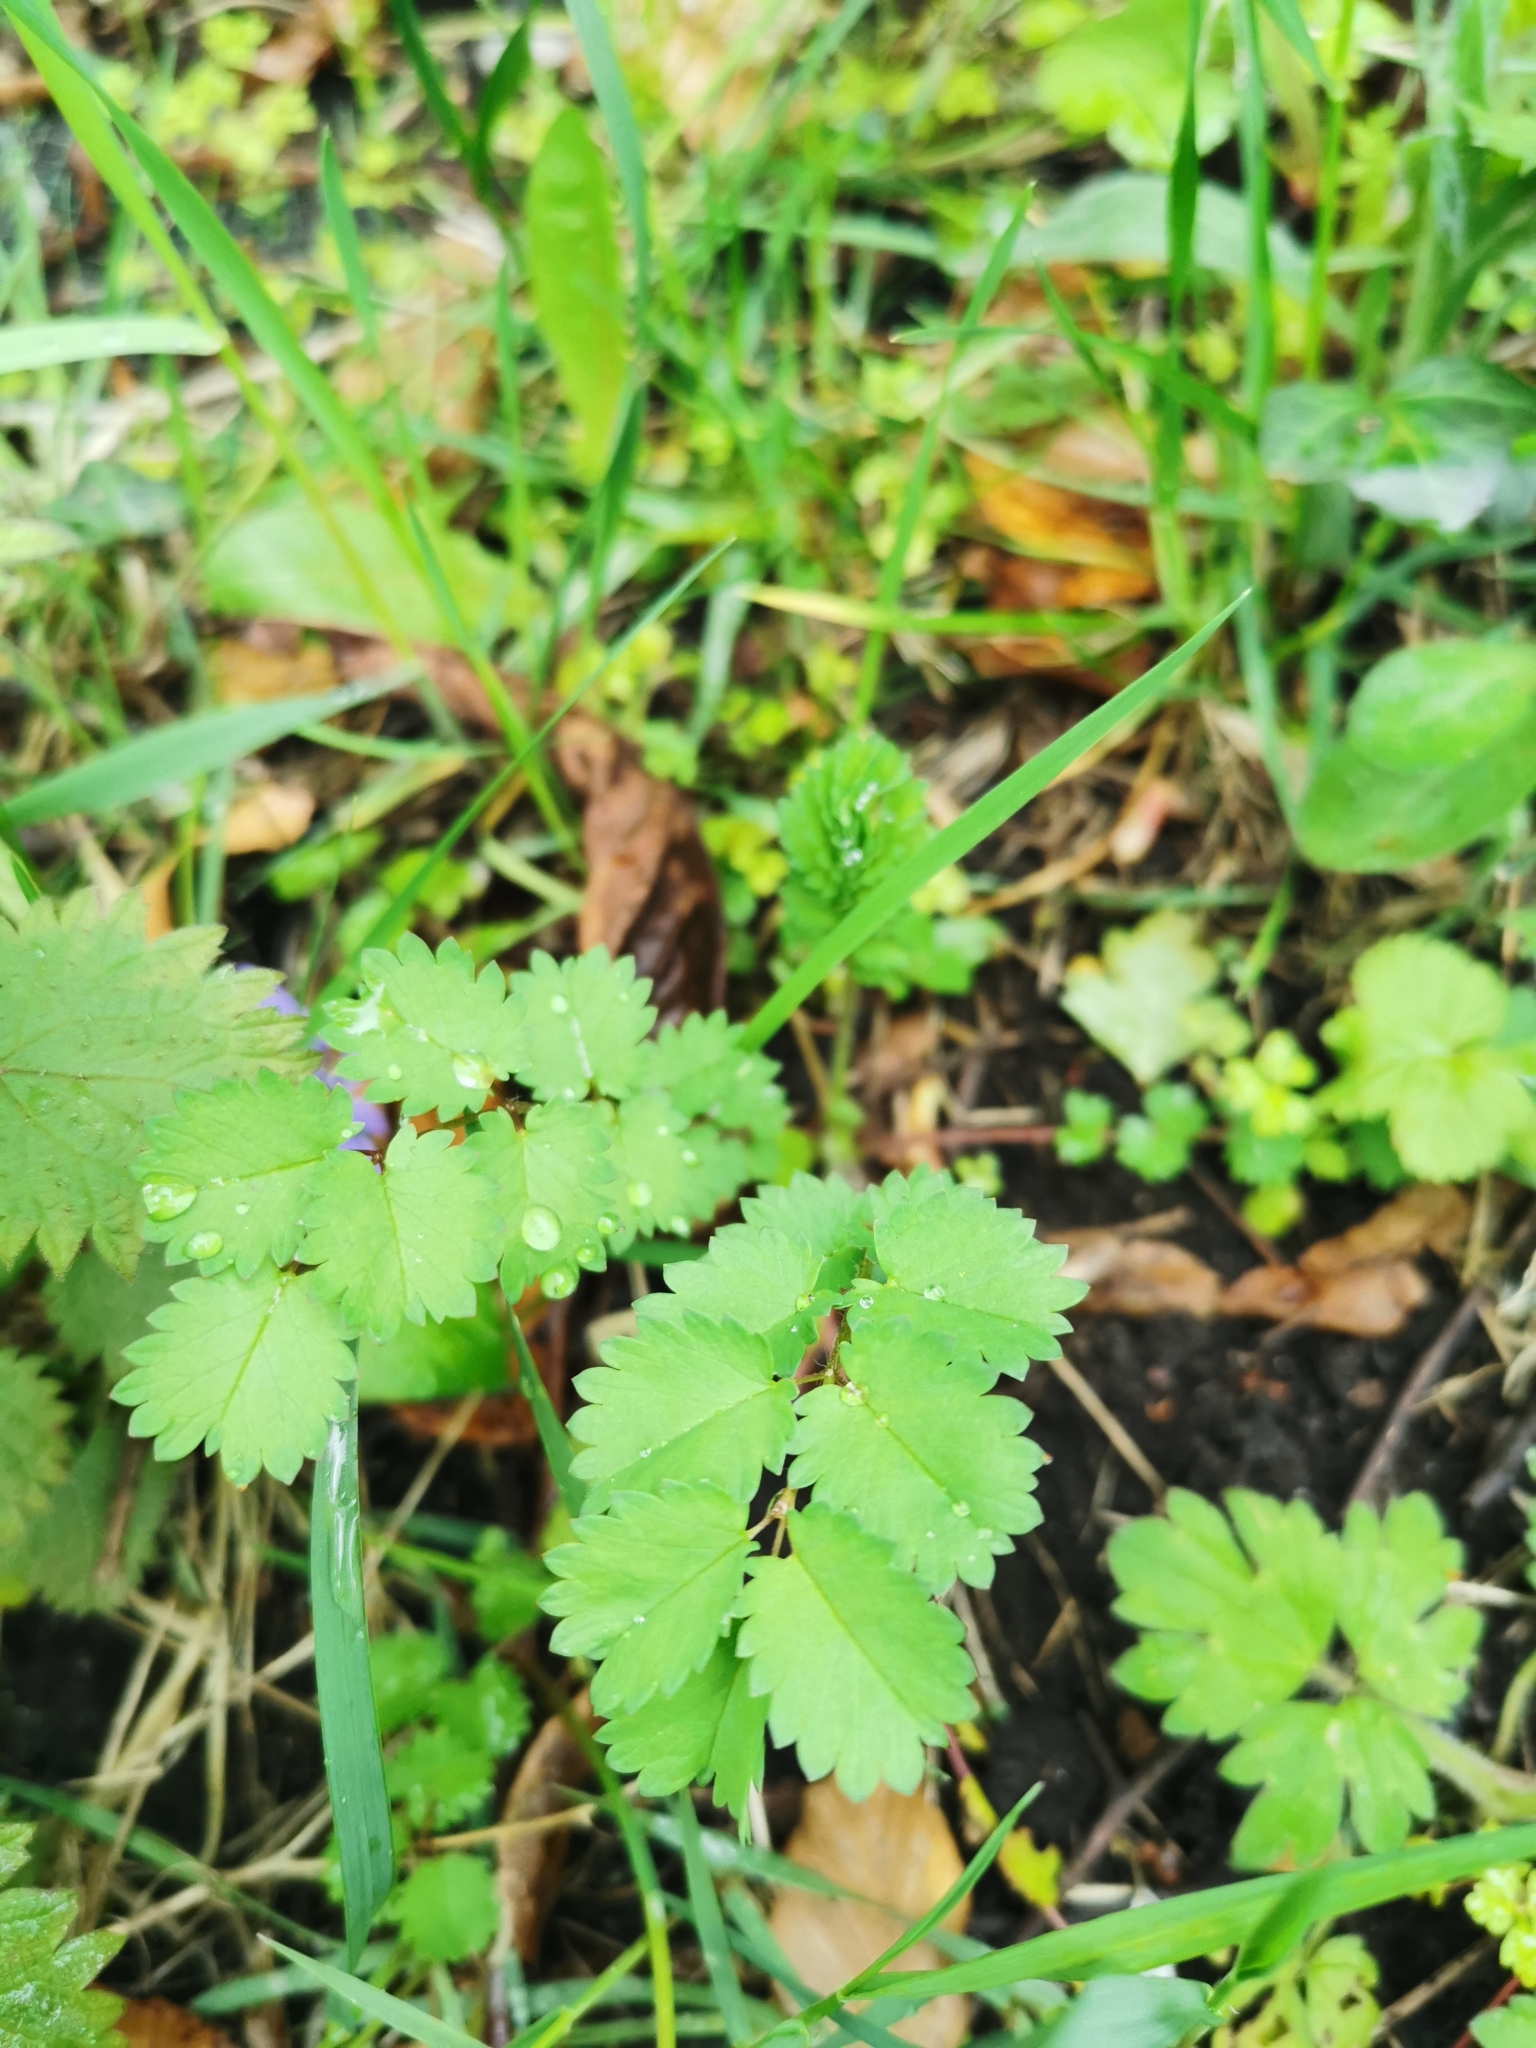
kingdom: Plantae
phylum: Tracheophyta
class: Magnoliopsida
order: Rosales
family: Rosaceae
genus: Poterium
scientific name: Poterium sanguisorba
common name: Salad burnet
